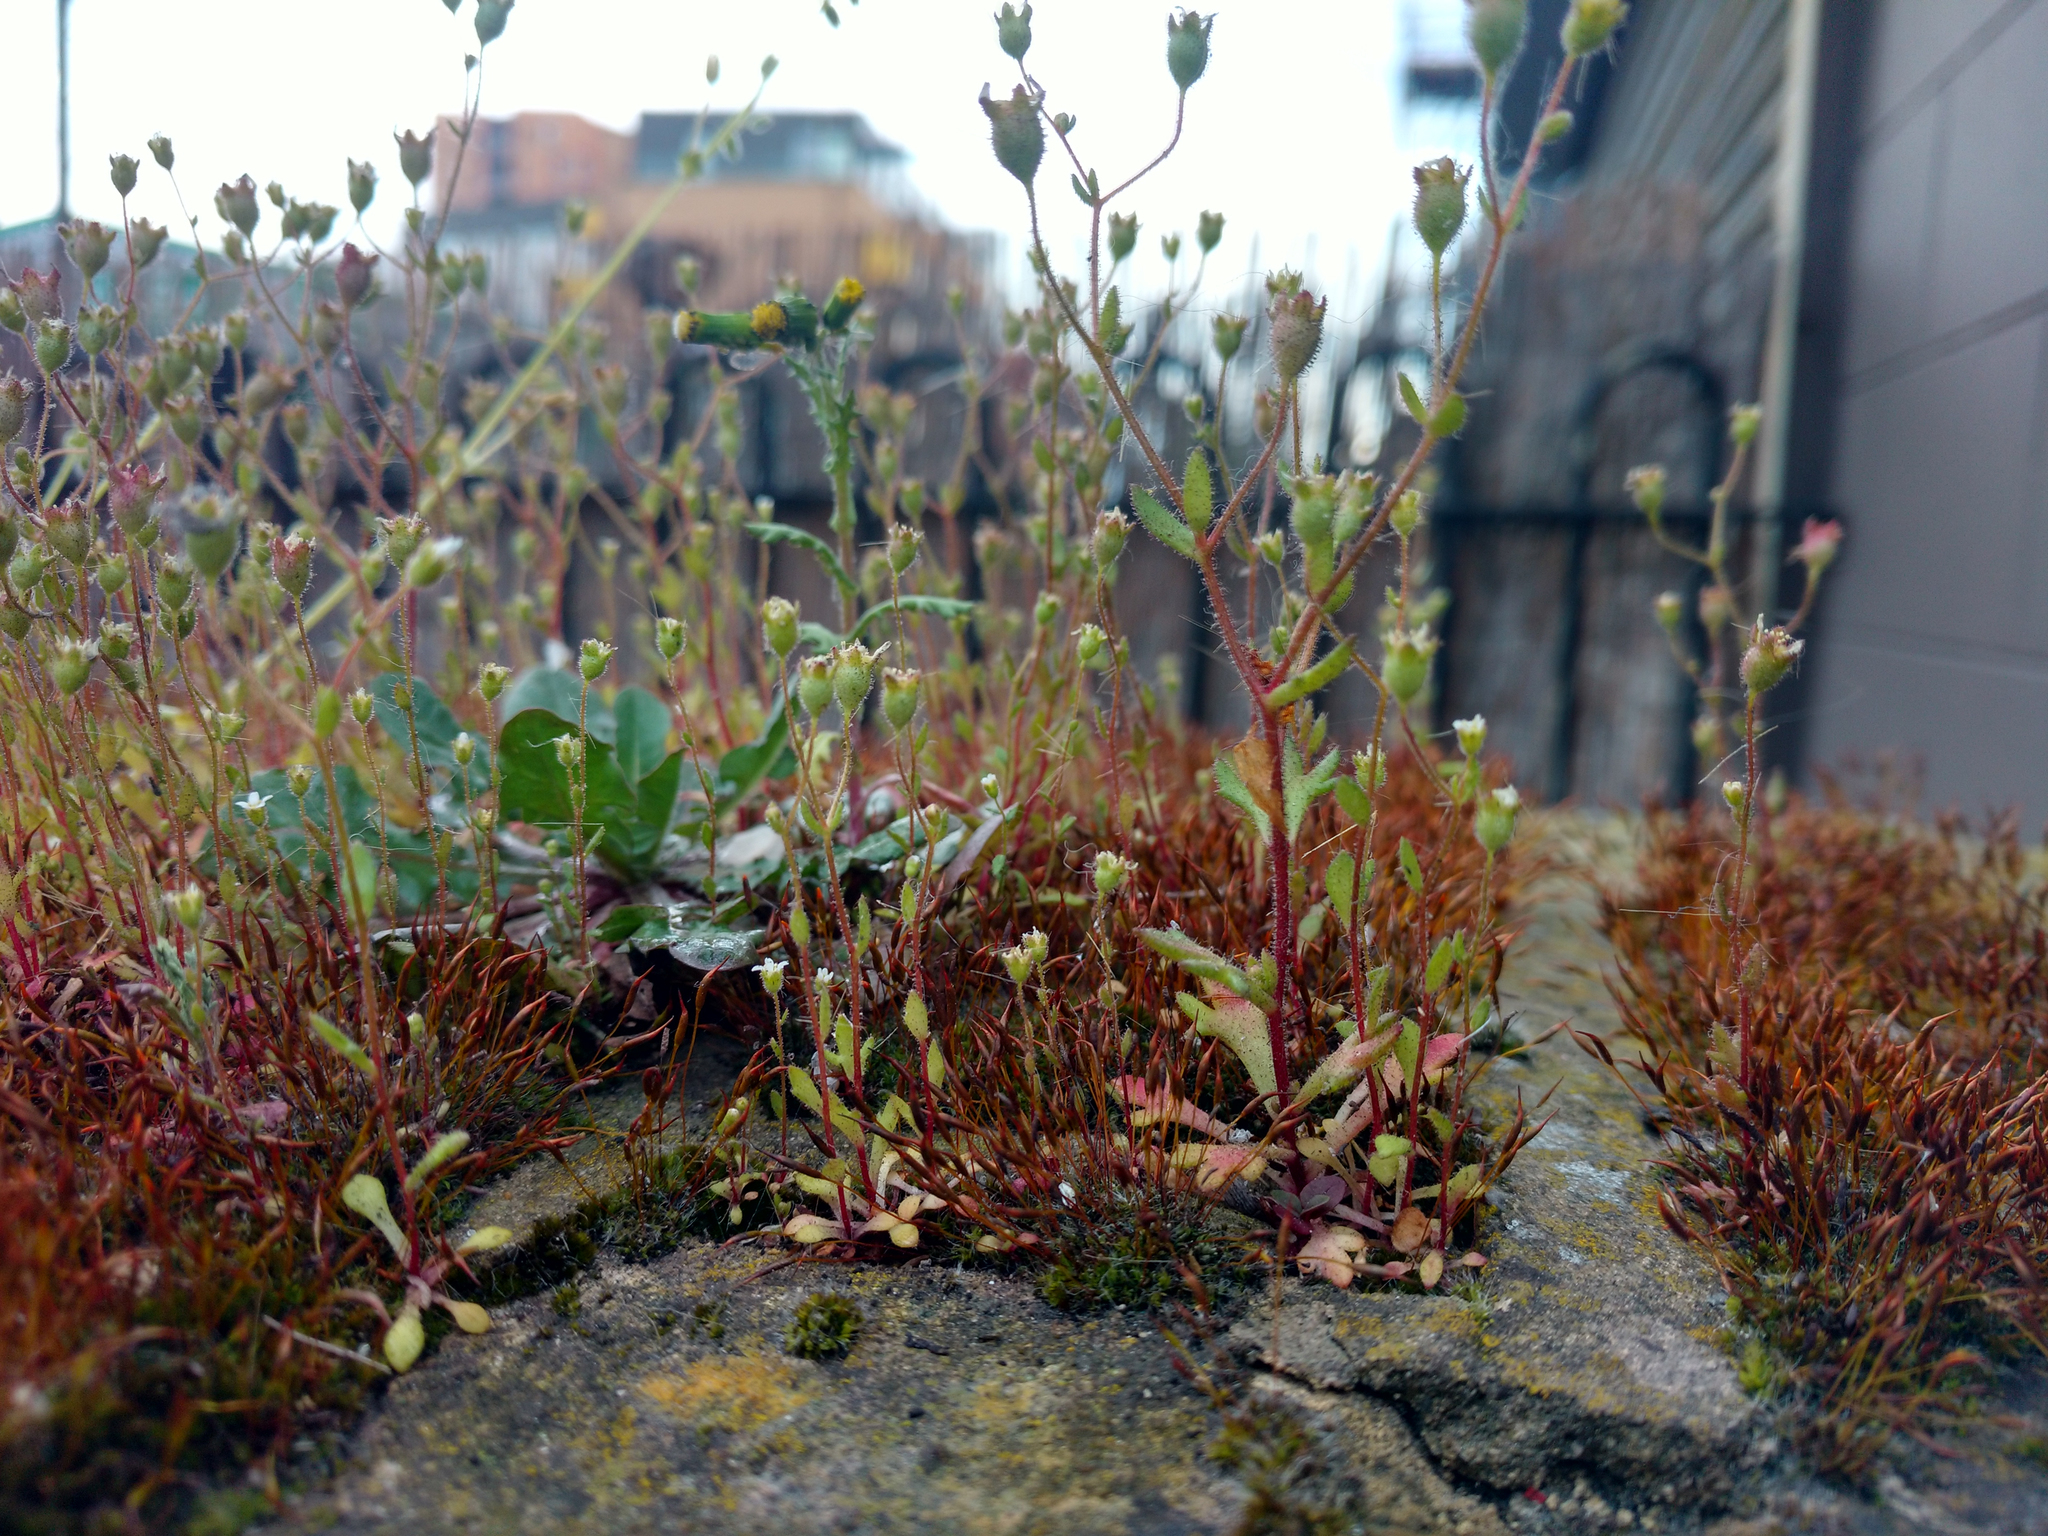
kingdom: Plantae
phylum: Tracheophyta
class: Magnoliopsida
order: Saxifragales
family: Saxifragaceae
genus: Saxifraga
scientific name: Saxifraga tridactylites
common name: Rue-leaved saxifrage
